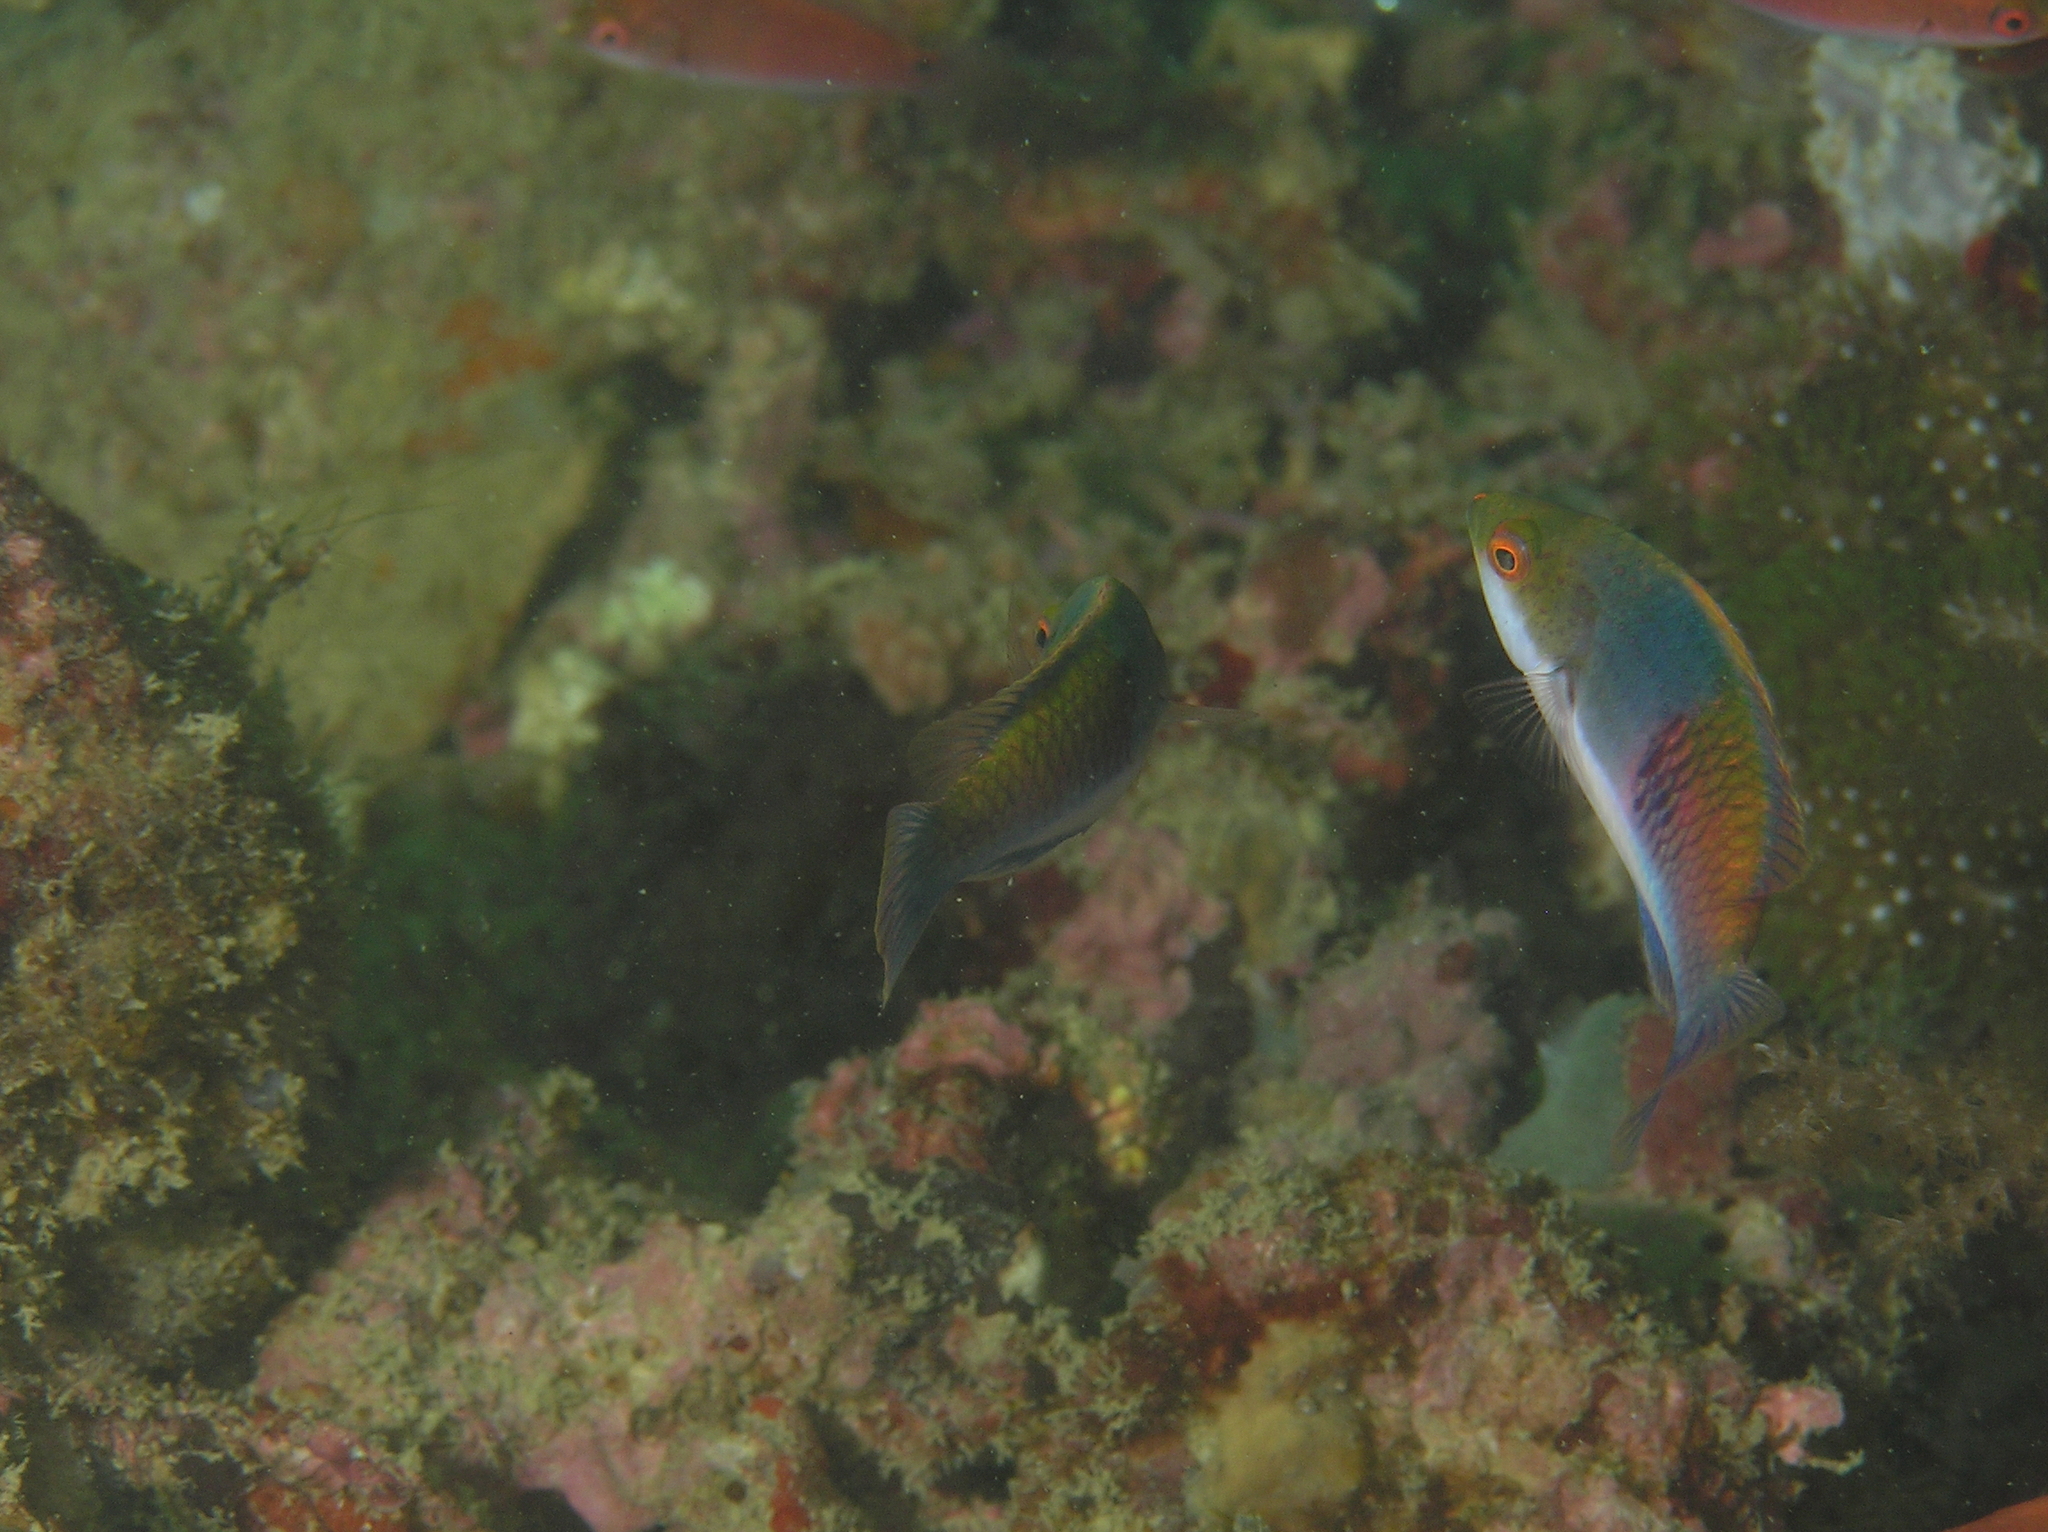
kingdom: Animalia
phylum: Chordata
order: Perciformes
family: Labridae
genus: Cirrhilabrus
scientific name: Cirrhilabrus cyanopleura
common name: Coralline wrasse
